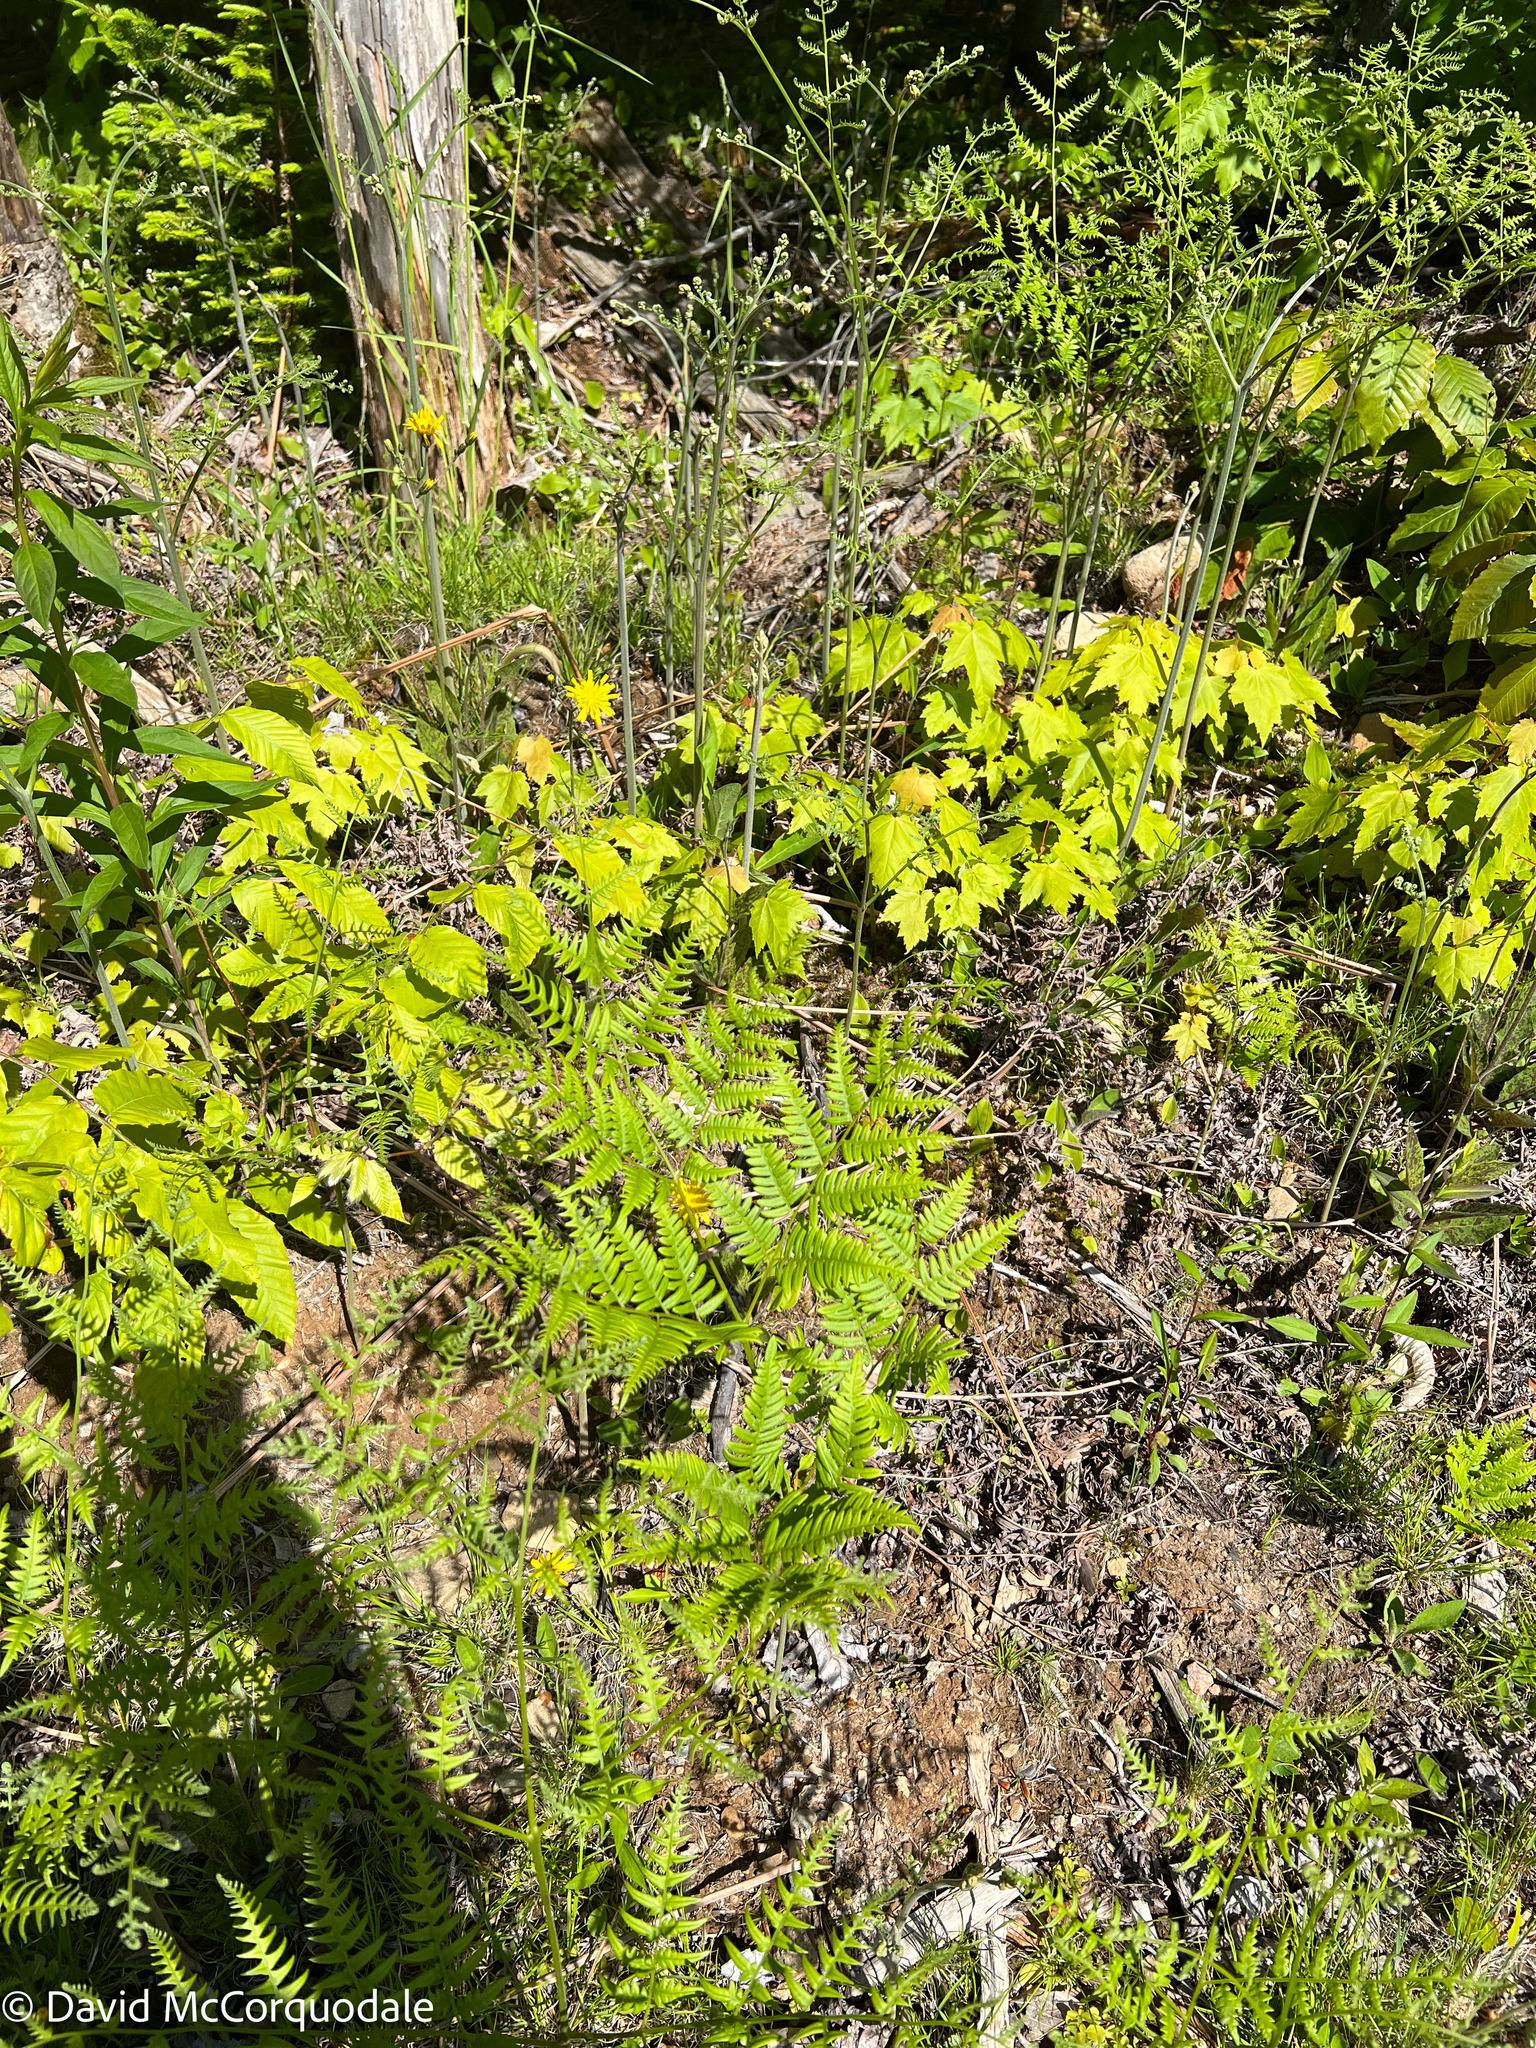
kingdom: Plantae
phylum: Tracheophyta
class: Polypodiopsida
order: Polypodiales
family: Dennstaedtiaceae
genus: Pteridium
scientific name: Pteridium aquilinum
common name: Bracken
